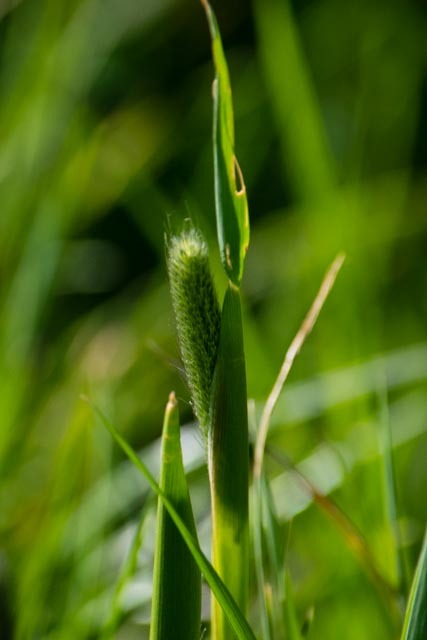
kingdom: Plantae
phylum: Tracheophyta
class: Liliopsida
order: Poales
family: Poaceae
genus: Alopecurus
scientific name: Alopecurus pratensis
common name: Meadow foxtail
